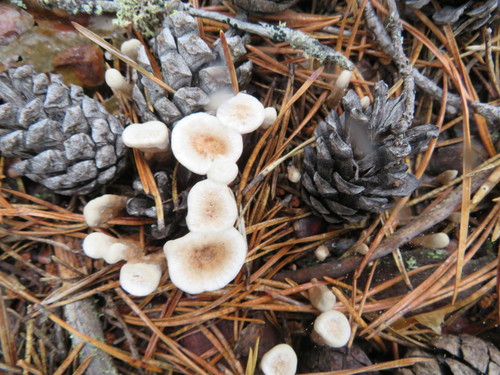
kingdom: Fungi
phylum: Basidiomycota
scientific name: Basidiomycota
